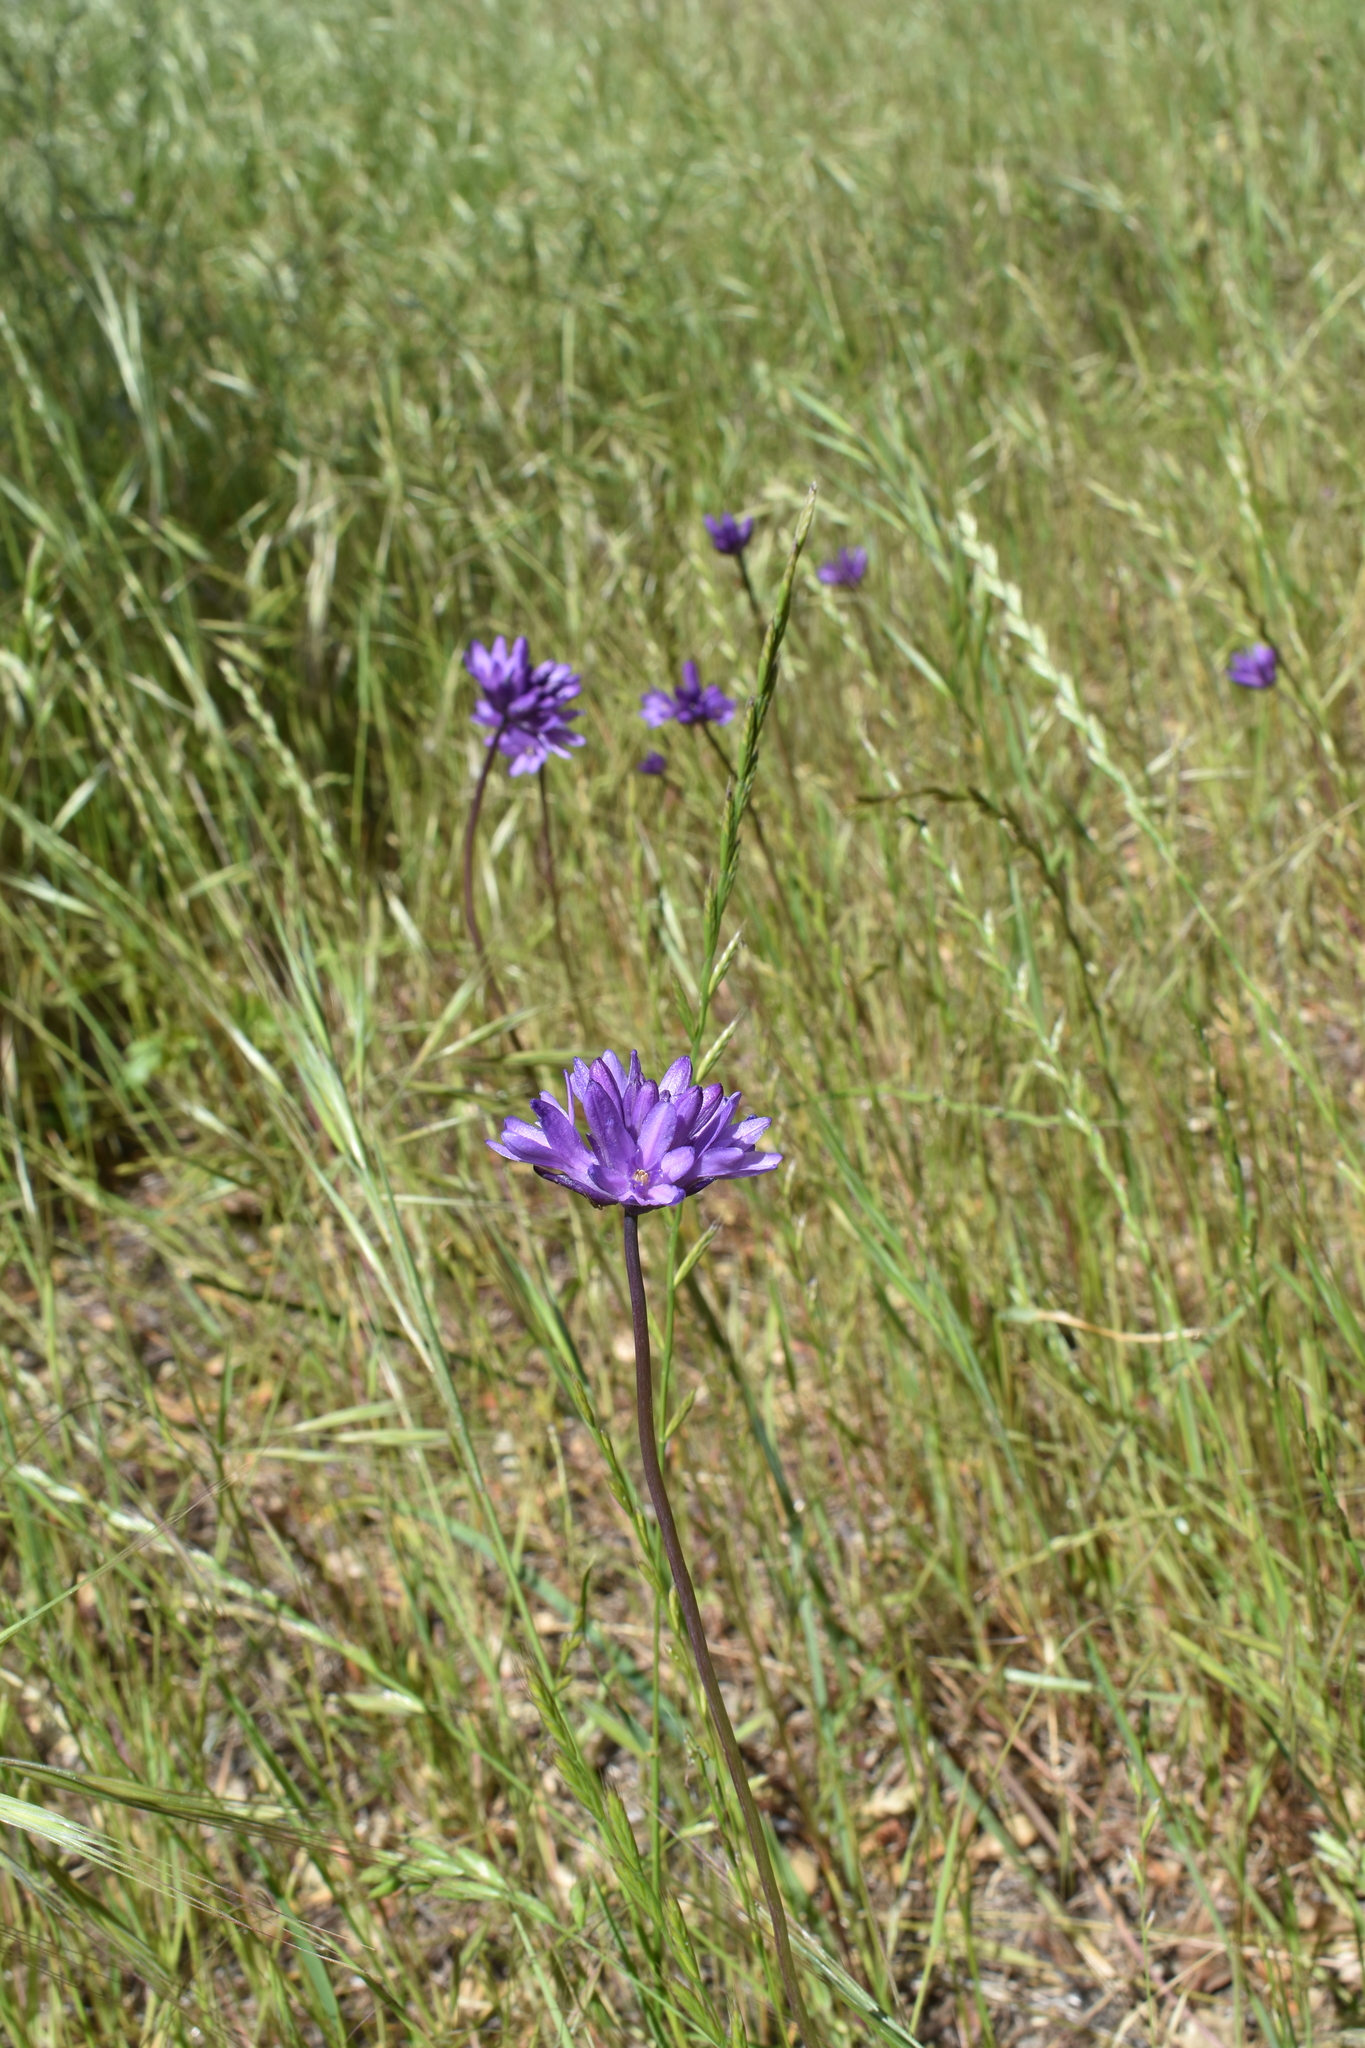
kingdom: Plantae
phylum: Tracheophyta
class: Liliopsida
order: Asparagales
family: Asparagaceae
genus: Dichelostemma
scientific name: Dichelostemma congestum
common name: Fork-tooth ookow
